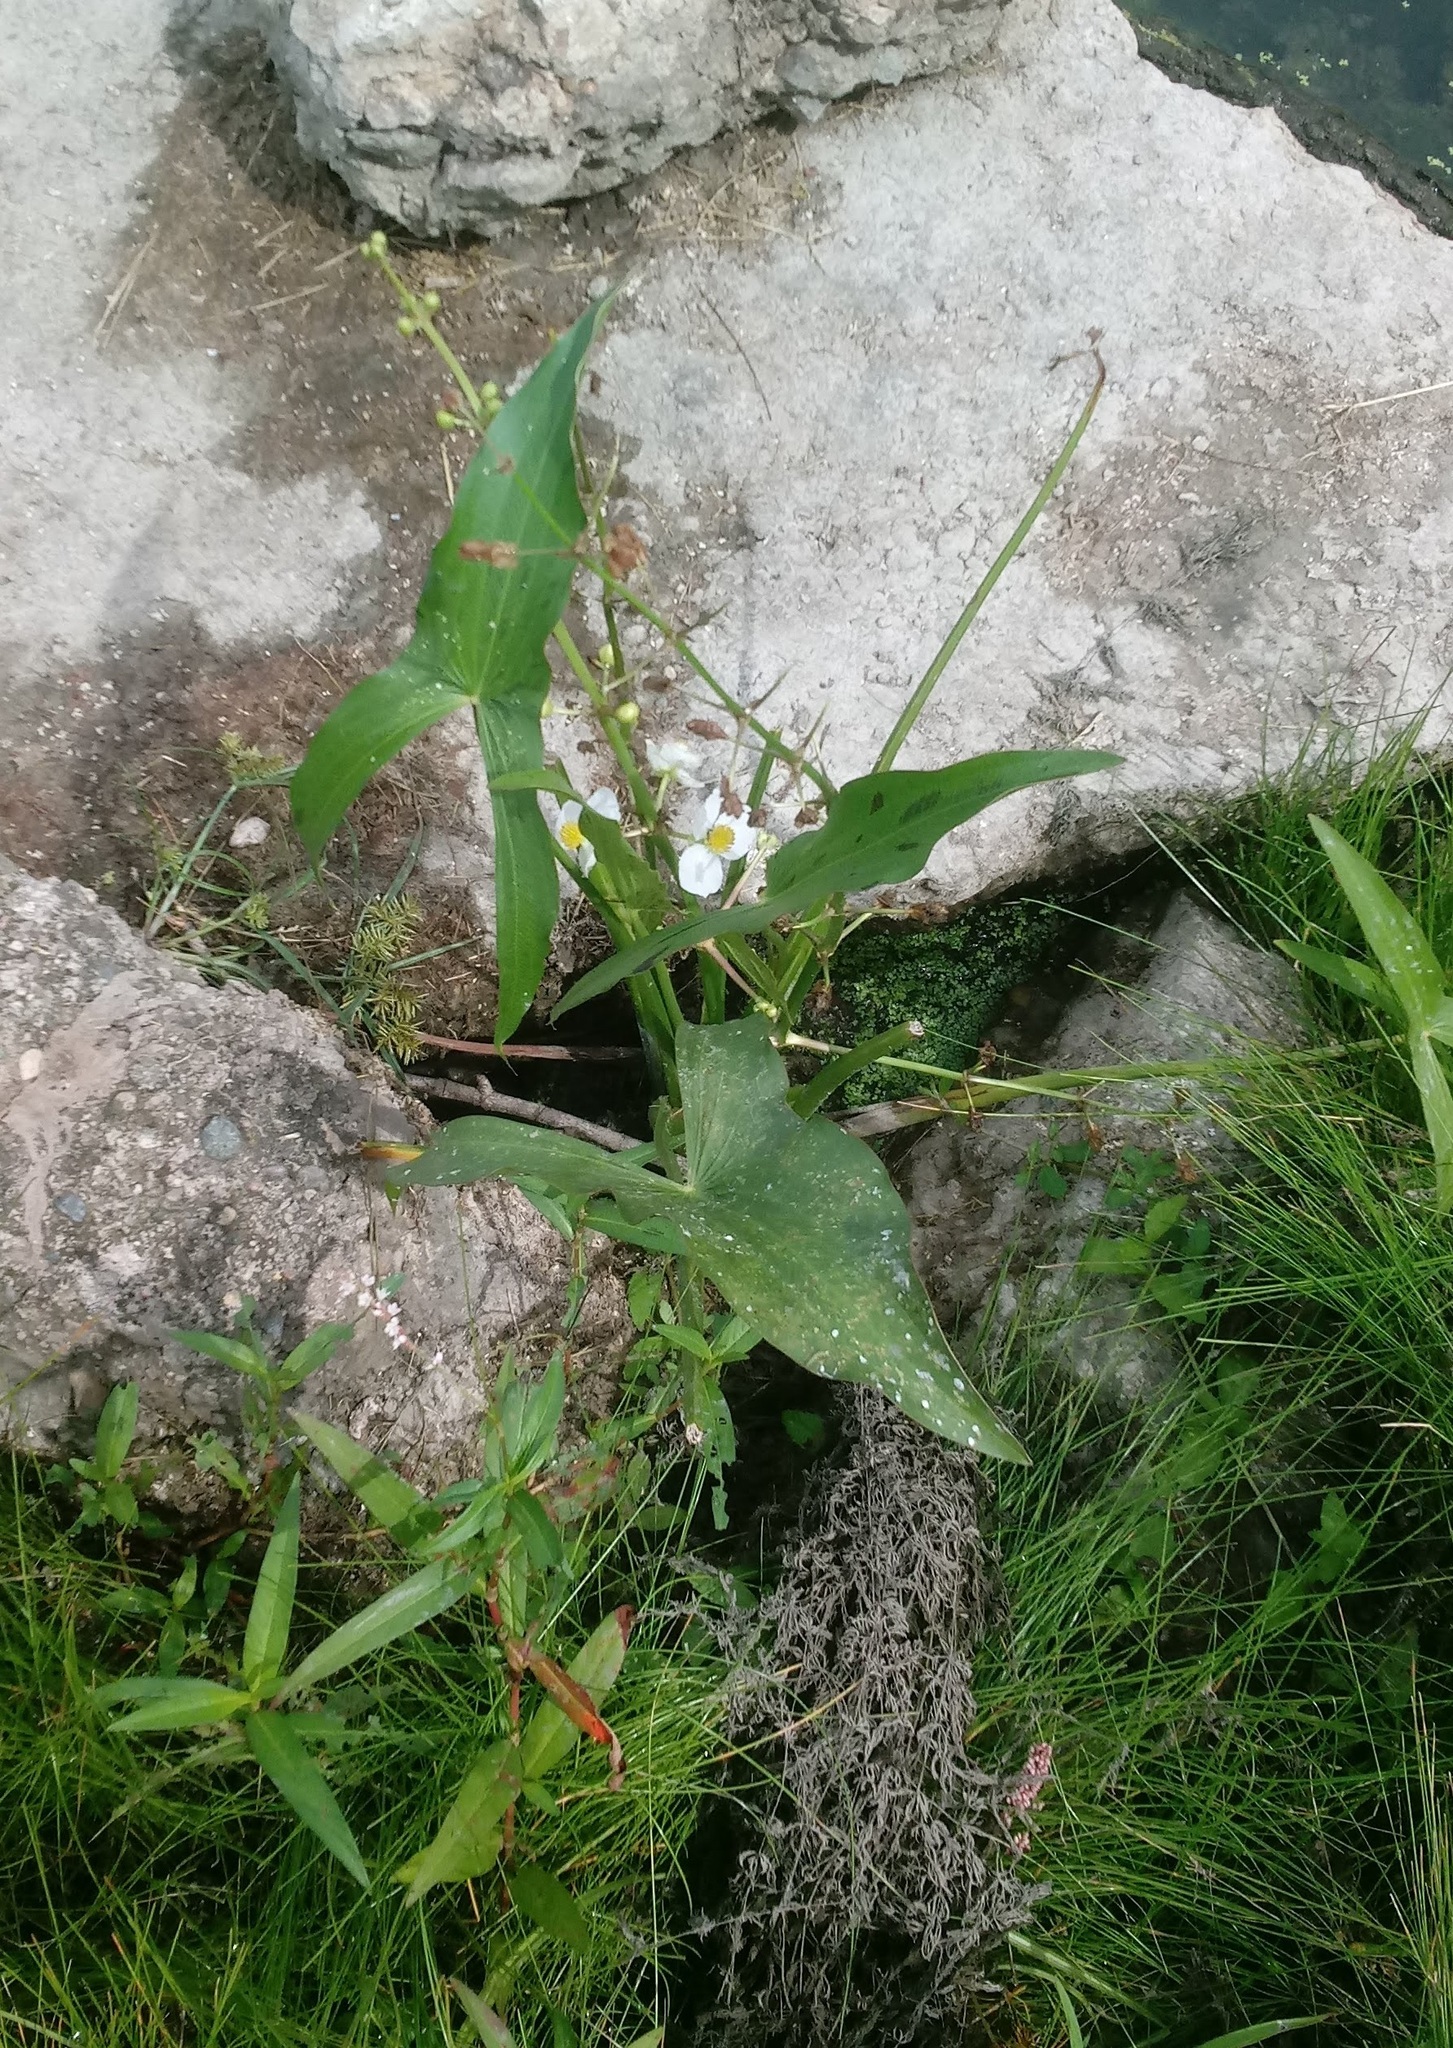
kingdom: Plantae
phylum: Tracheophyta
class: Liliopsida
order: Alismatales
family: Alismataceae
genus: Sagittaria
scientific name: Sagittaria latifolia
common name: Duck-potato
